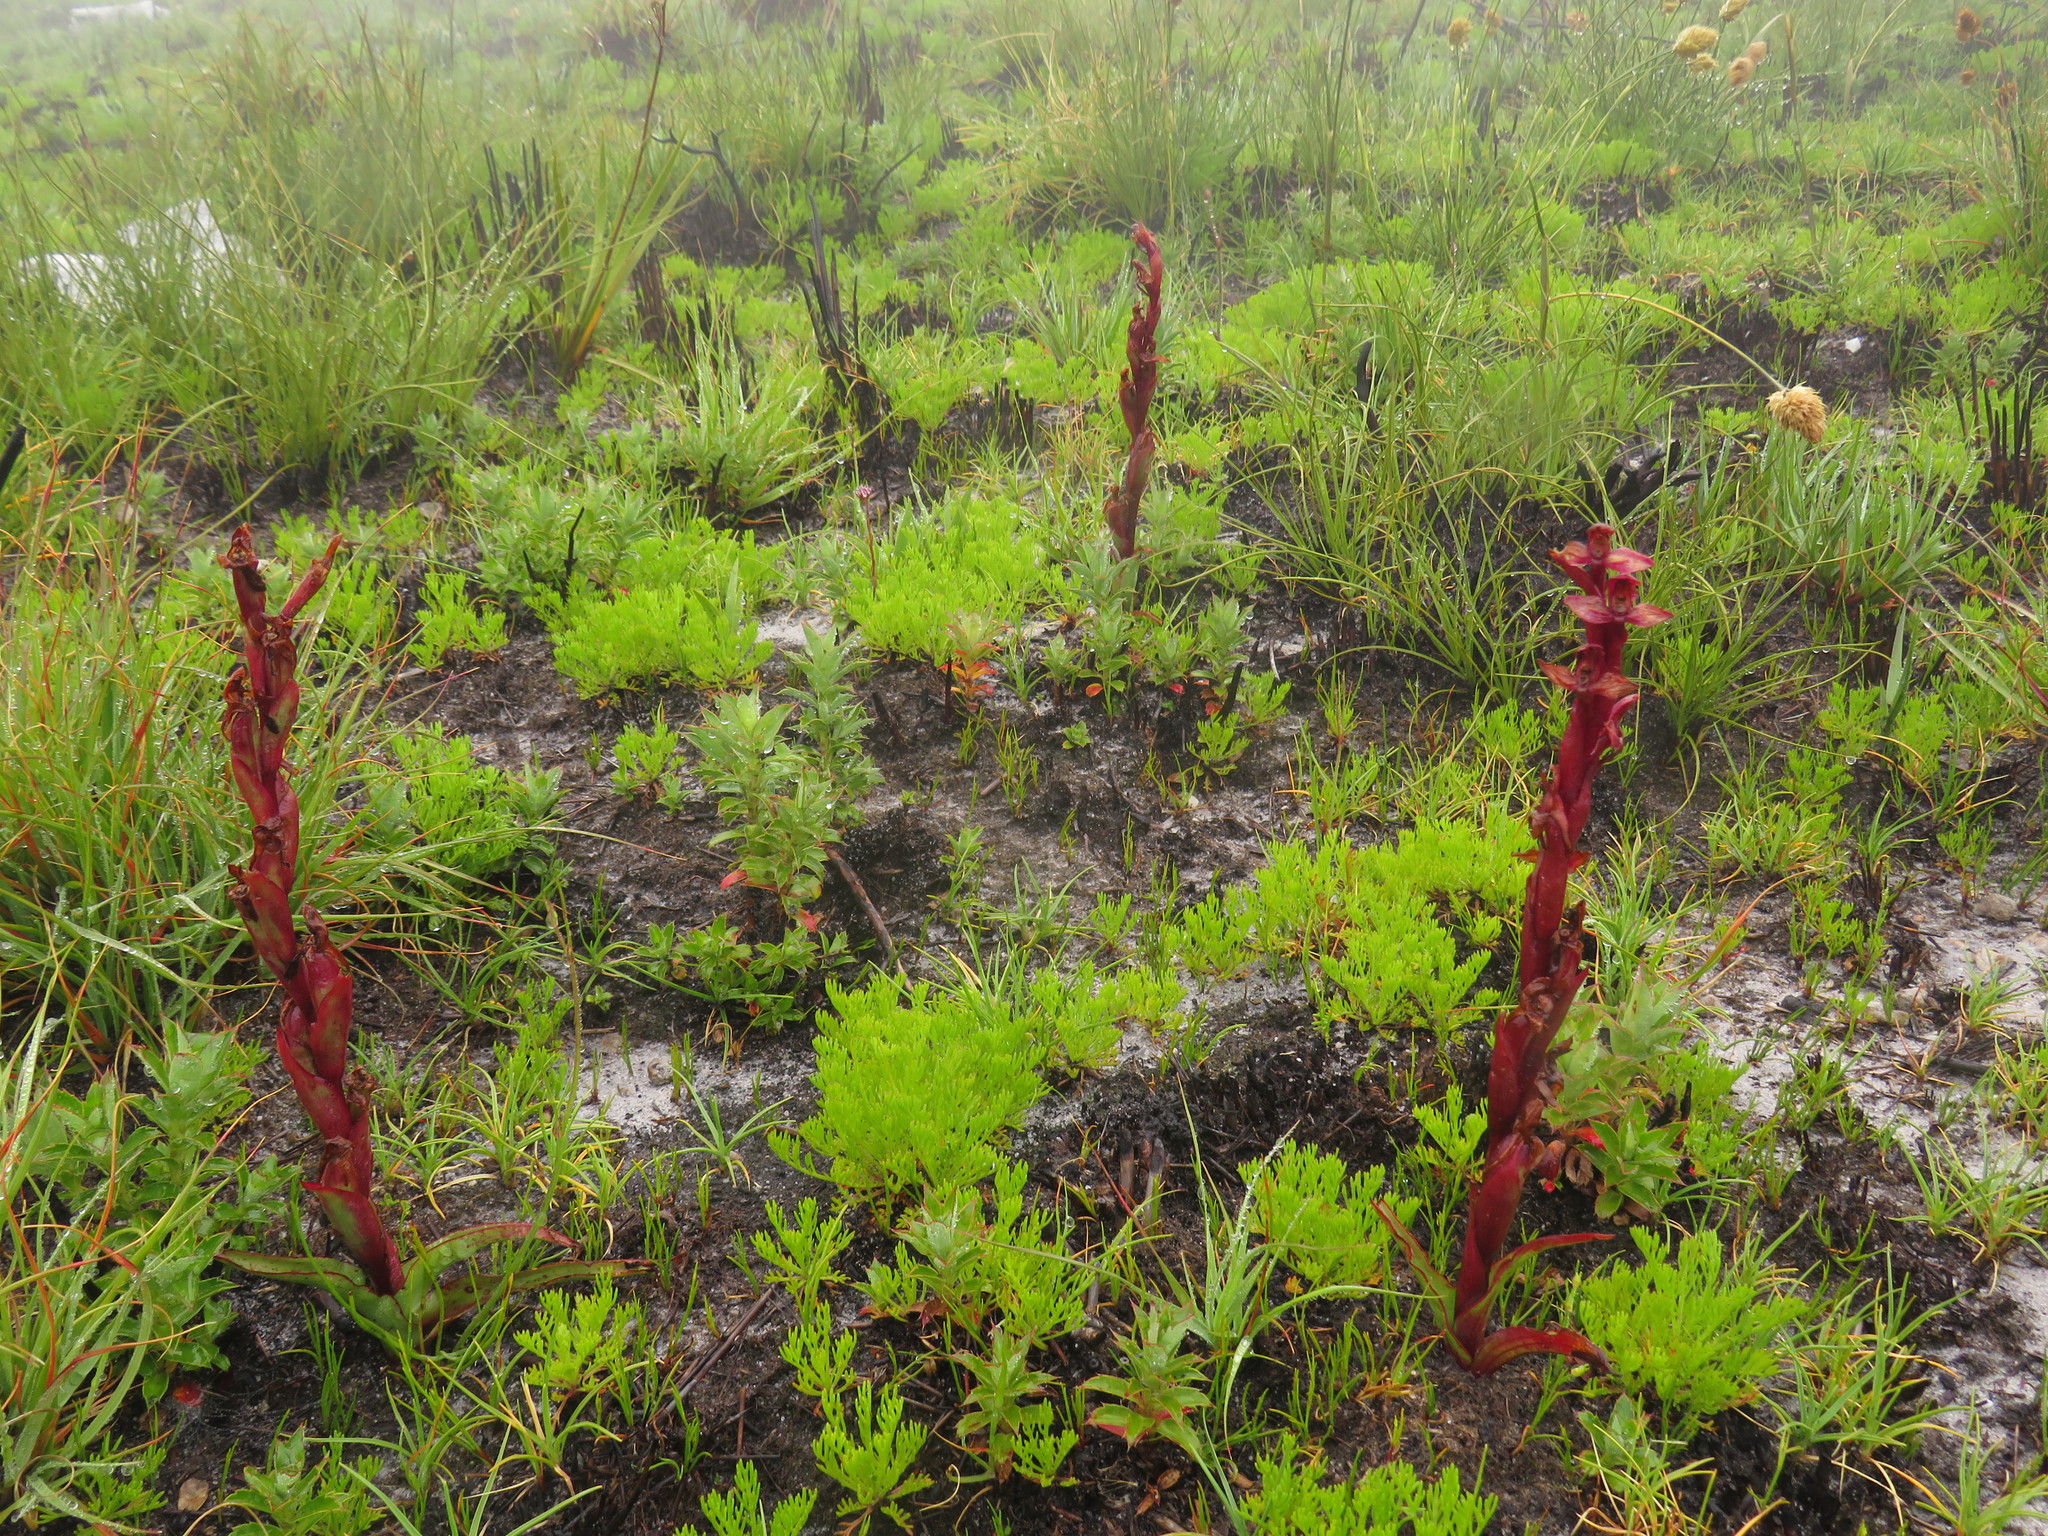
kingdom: Plantae
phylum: Tracheophyta
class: Liliopsida
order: Asparagales
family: Orchidaceae
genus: Disa
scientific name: Disa ophrydea
